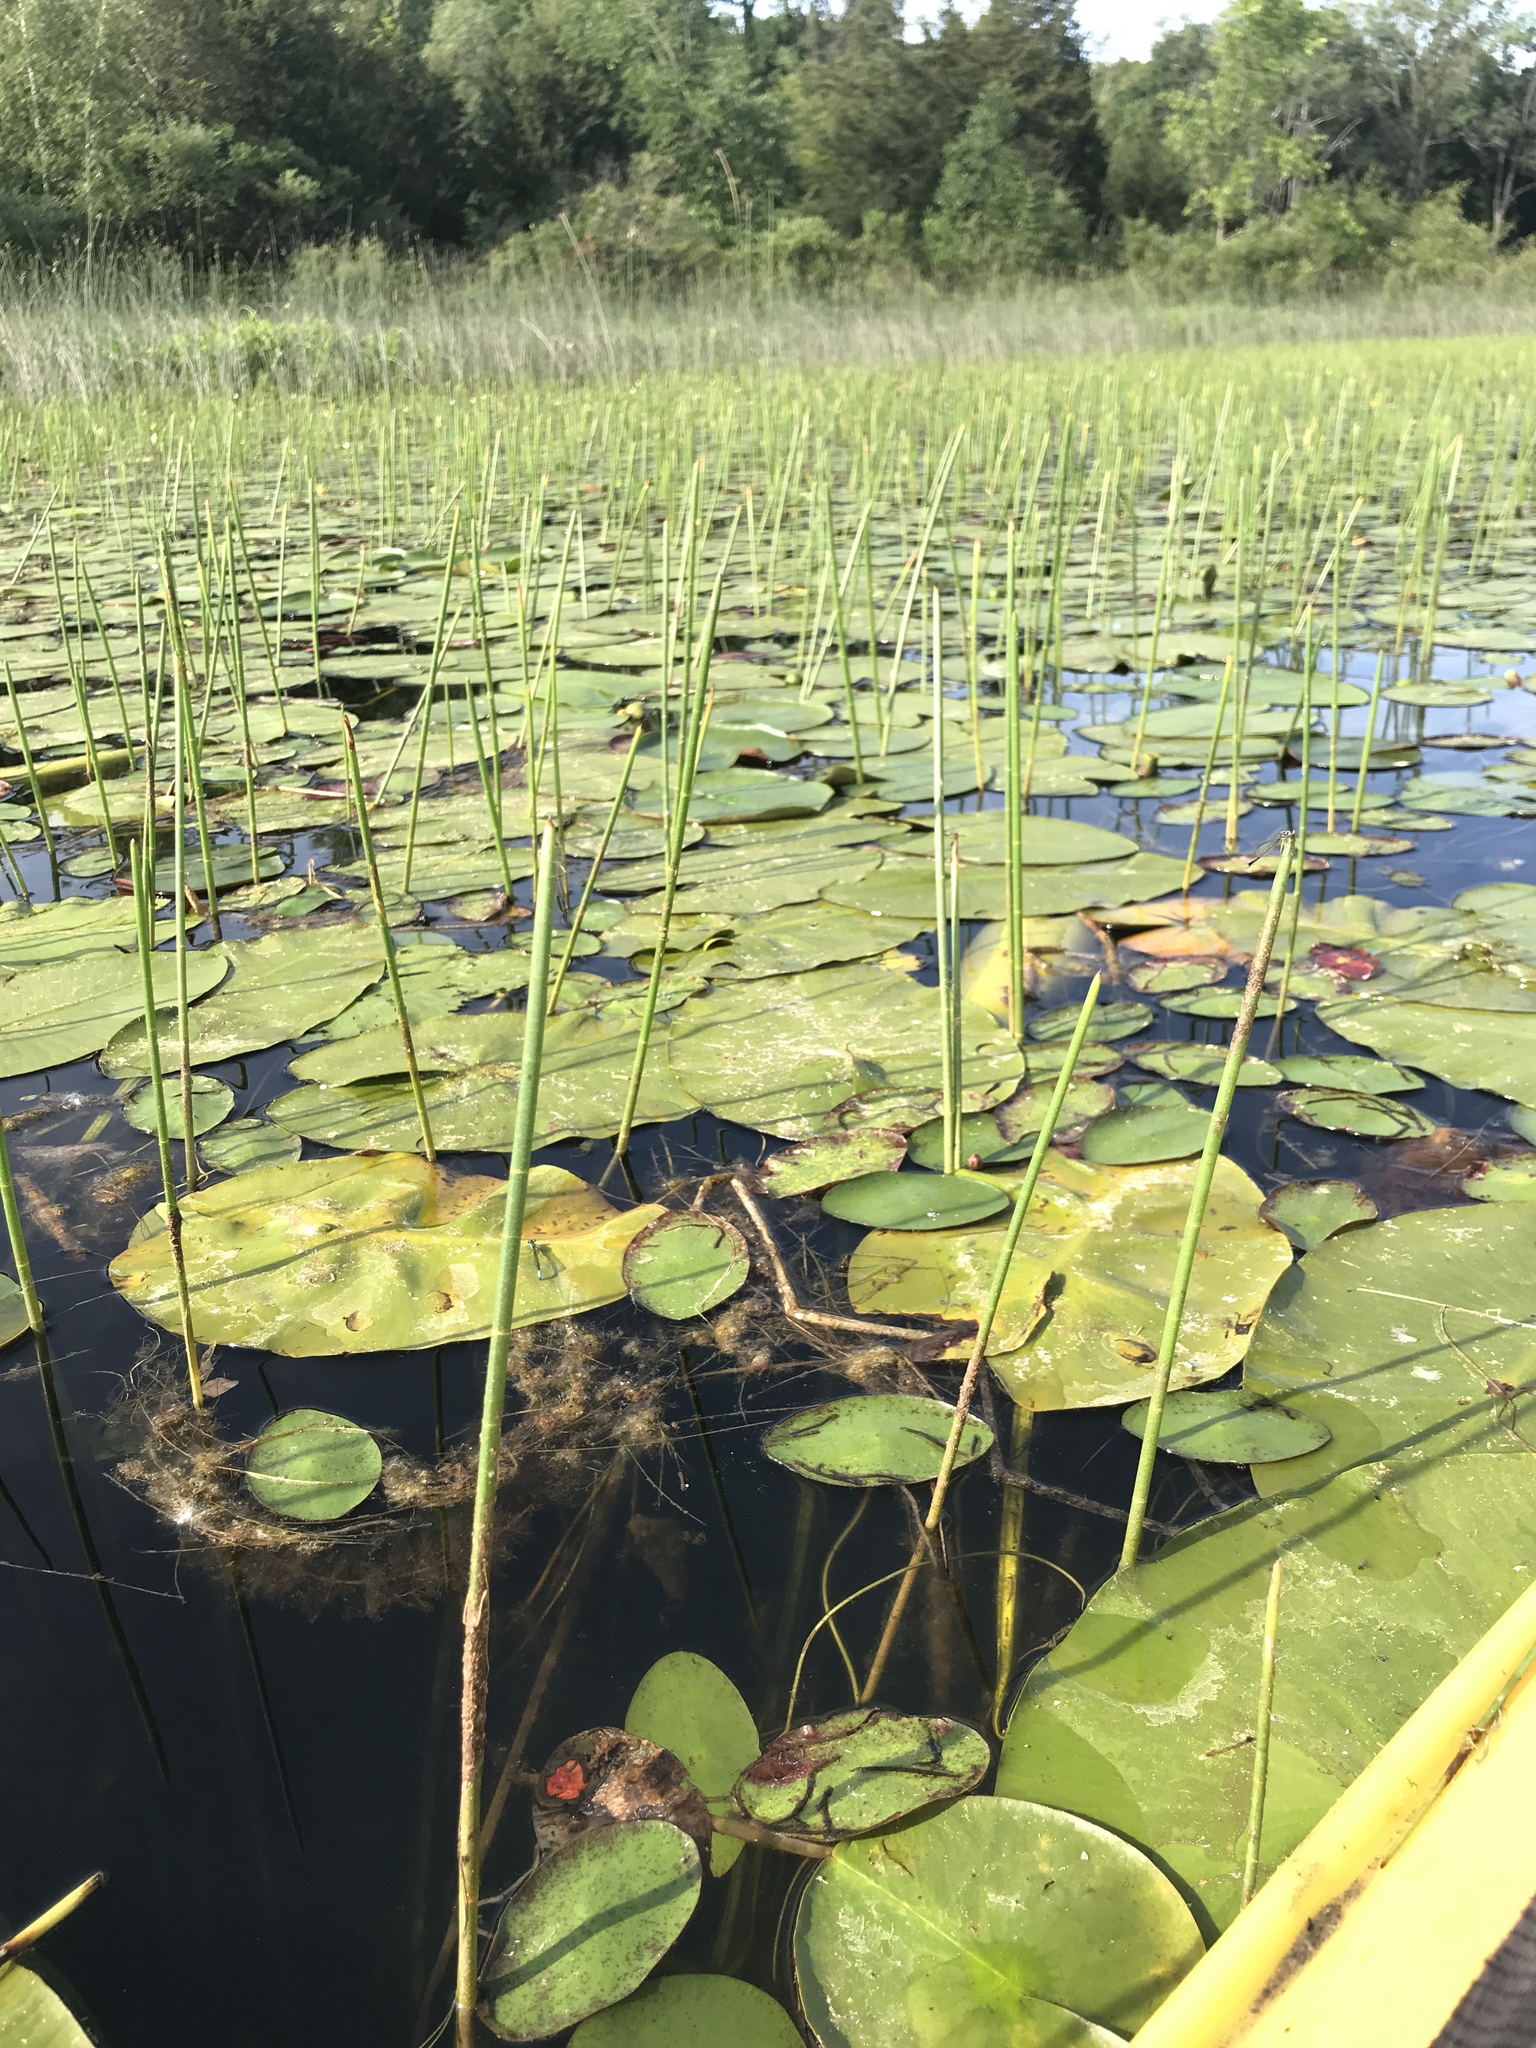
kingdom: Plantae
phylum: Tracheophyta
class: Liliopsida
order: Poales
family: Cyperaceae
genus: Eleocharis
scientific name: Eleocharis equisetoides
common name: Horsetail spike-rush
